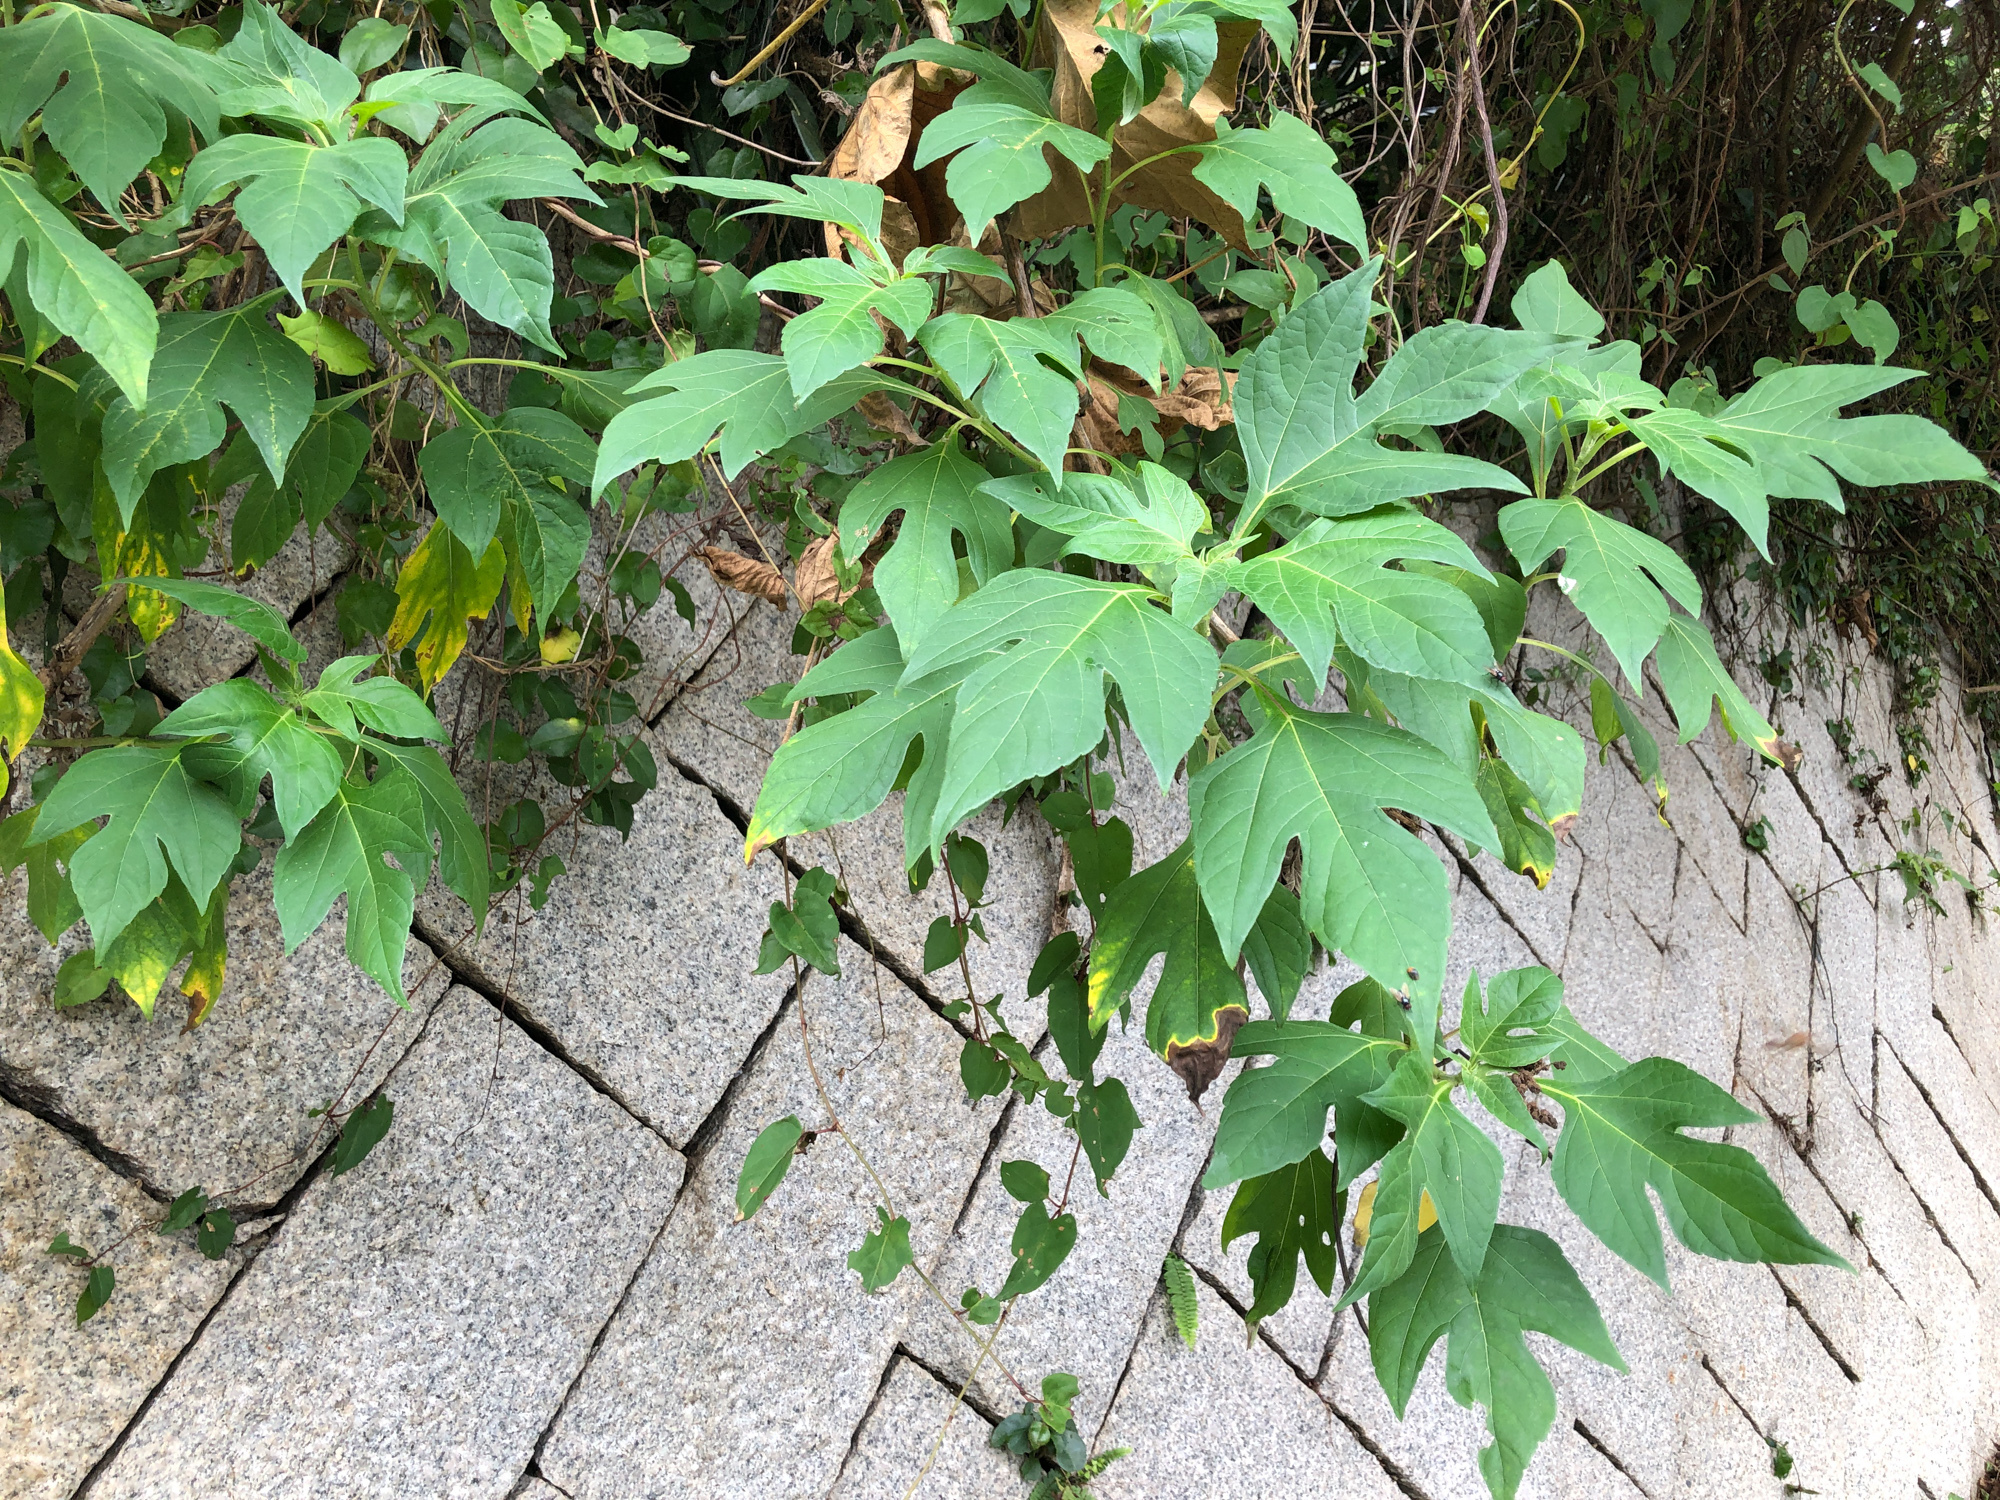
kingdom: Plantae
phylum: Tracheophyta
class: Magnoliopsida
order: Asterales
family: Asteraceae
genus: Tithonia
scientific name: Tithonia diversifolia
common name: Tree marigold
